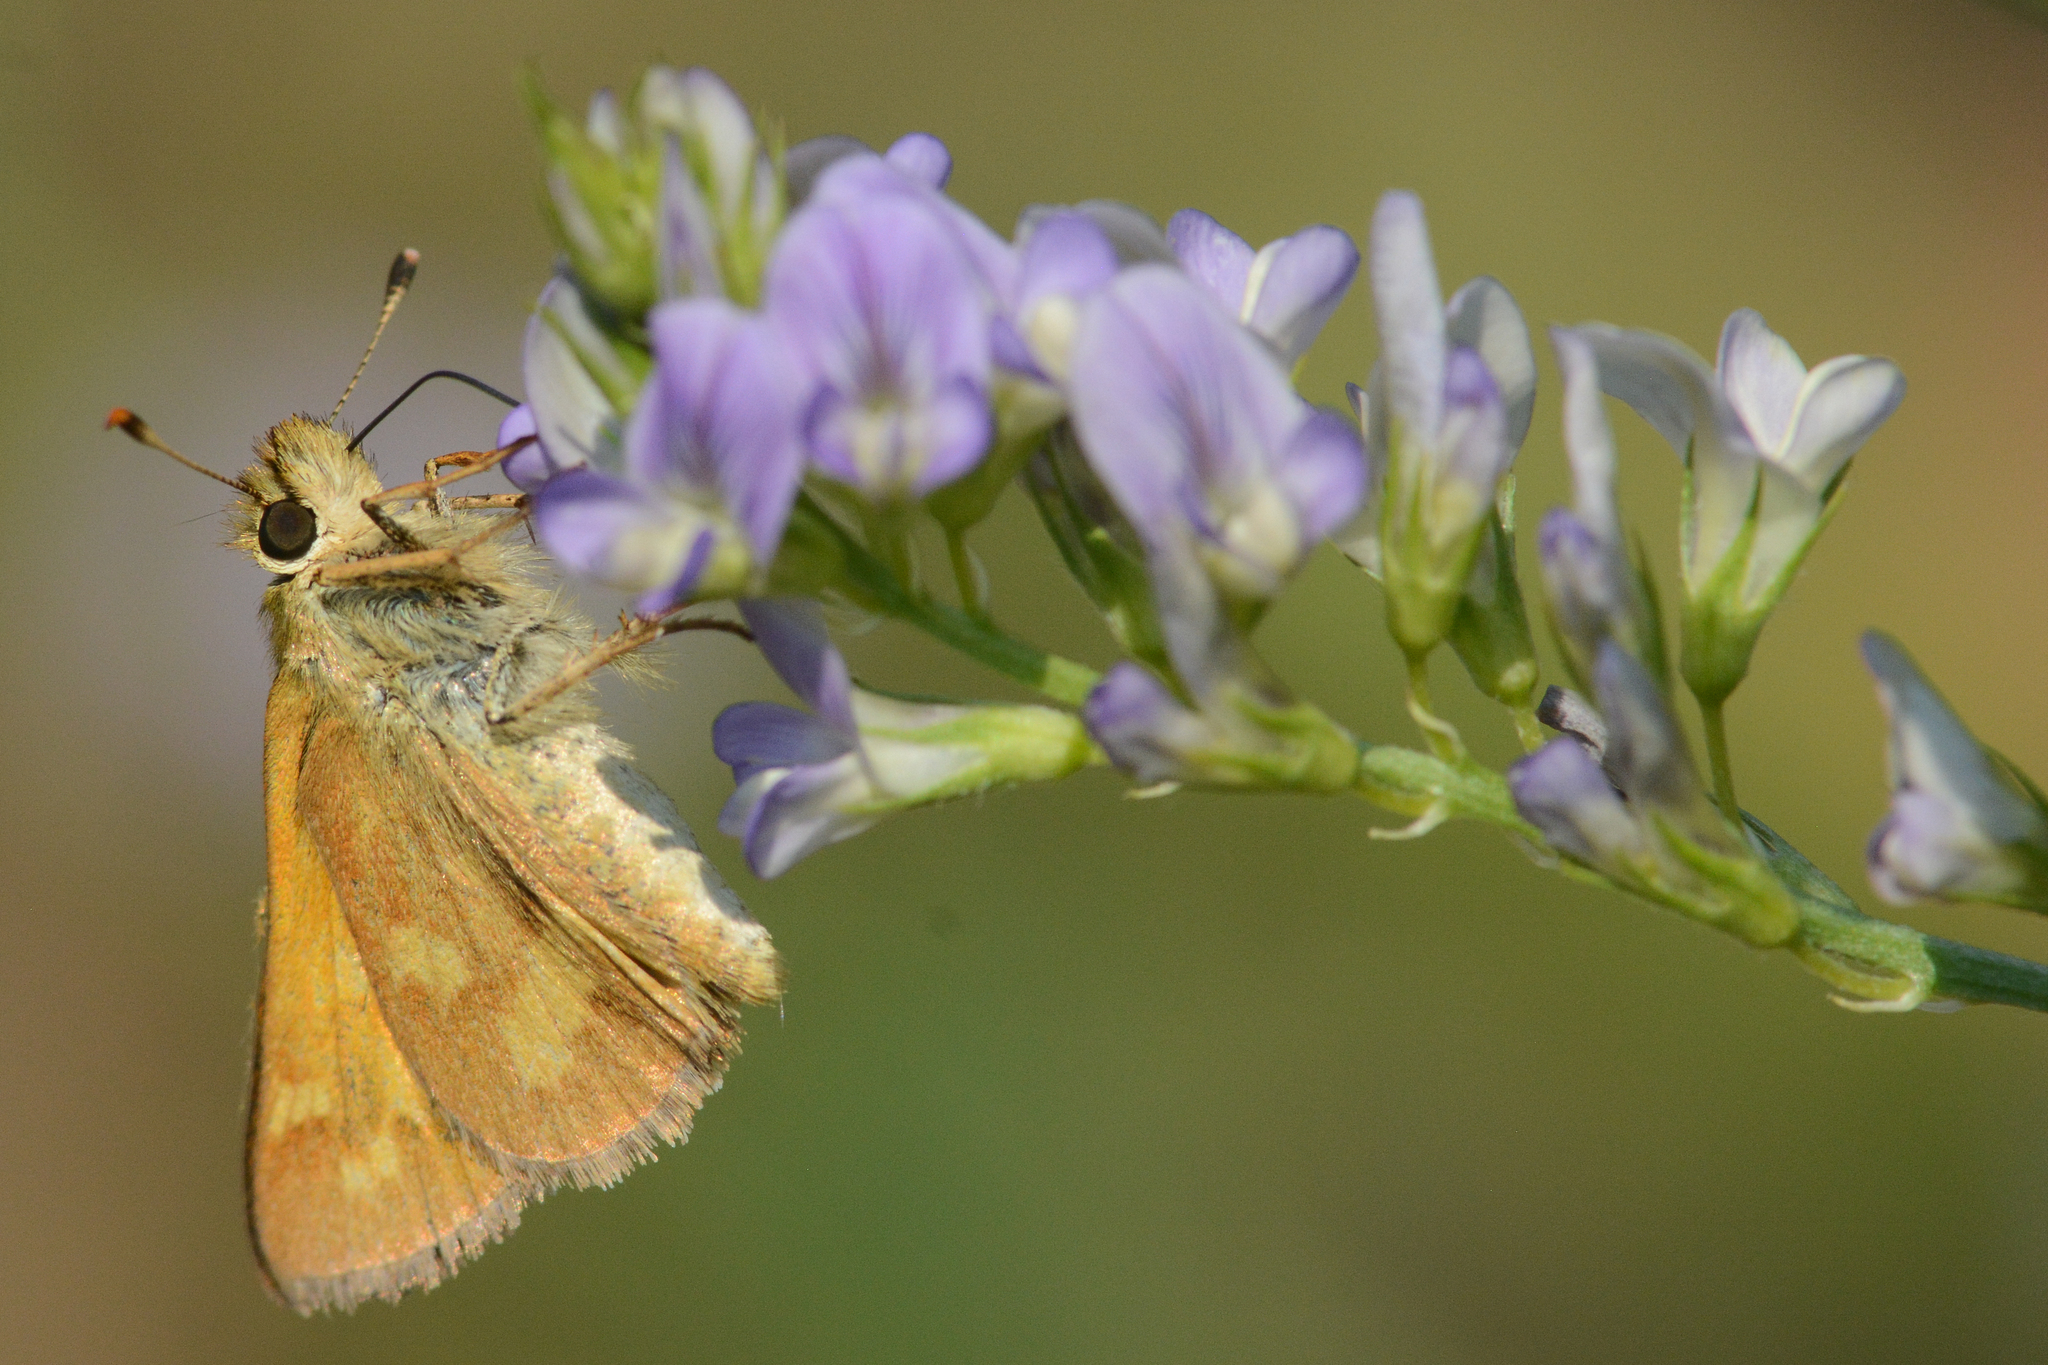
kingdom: Animalia
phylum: Arthropoda
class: Insecta
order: Lepidoptera
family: Hesperiidae
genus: Ochlodes
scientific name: Ochlodes sylvanoides
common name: Woodland skipper
